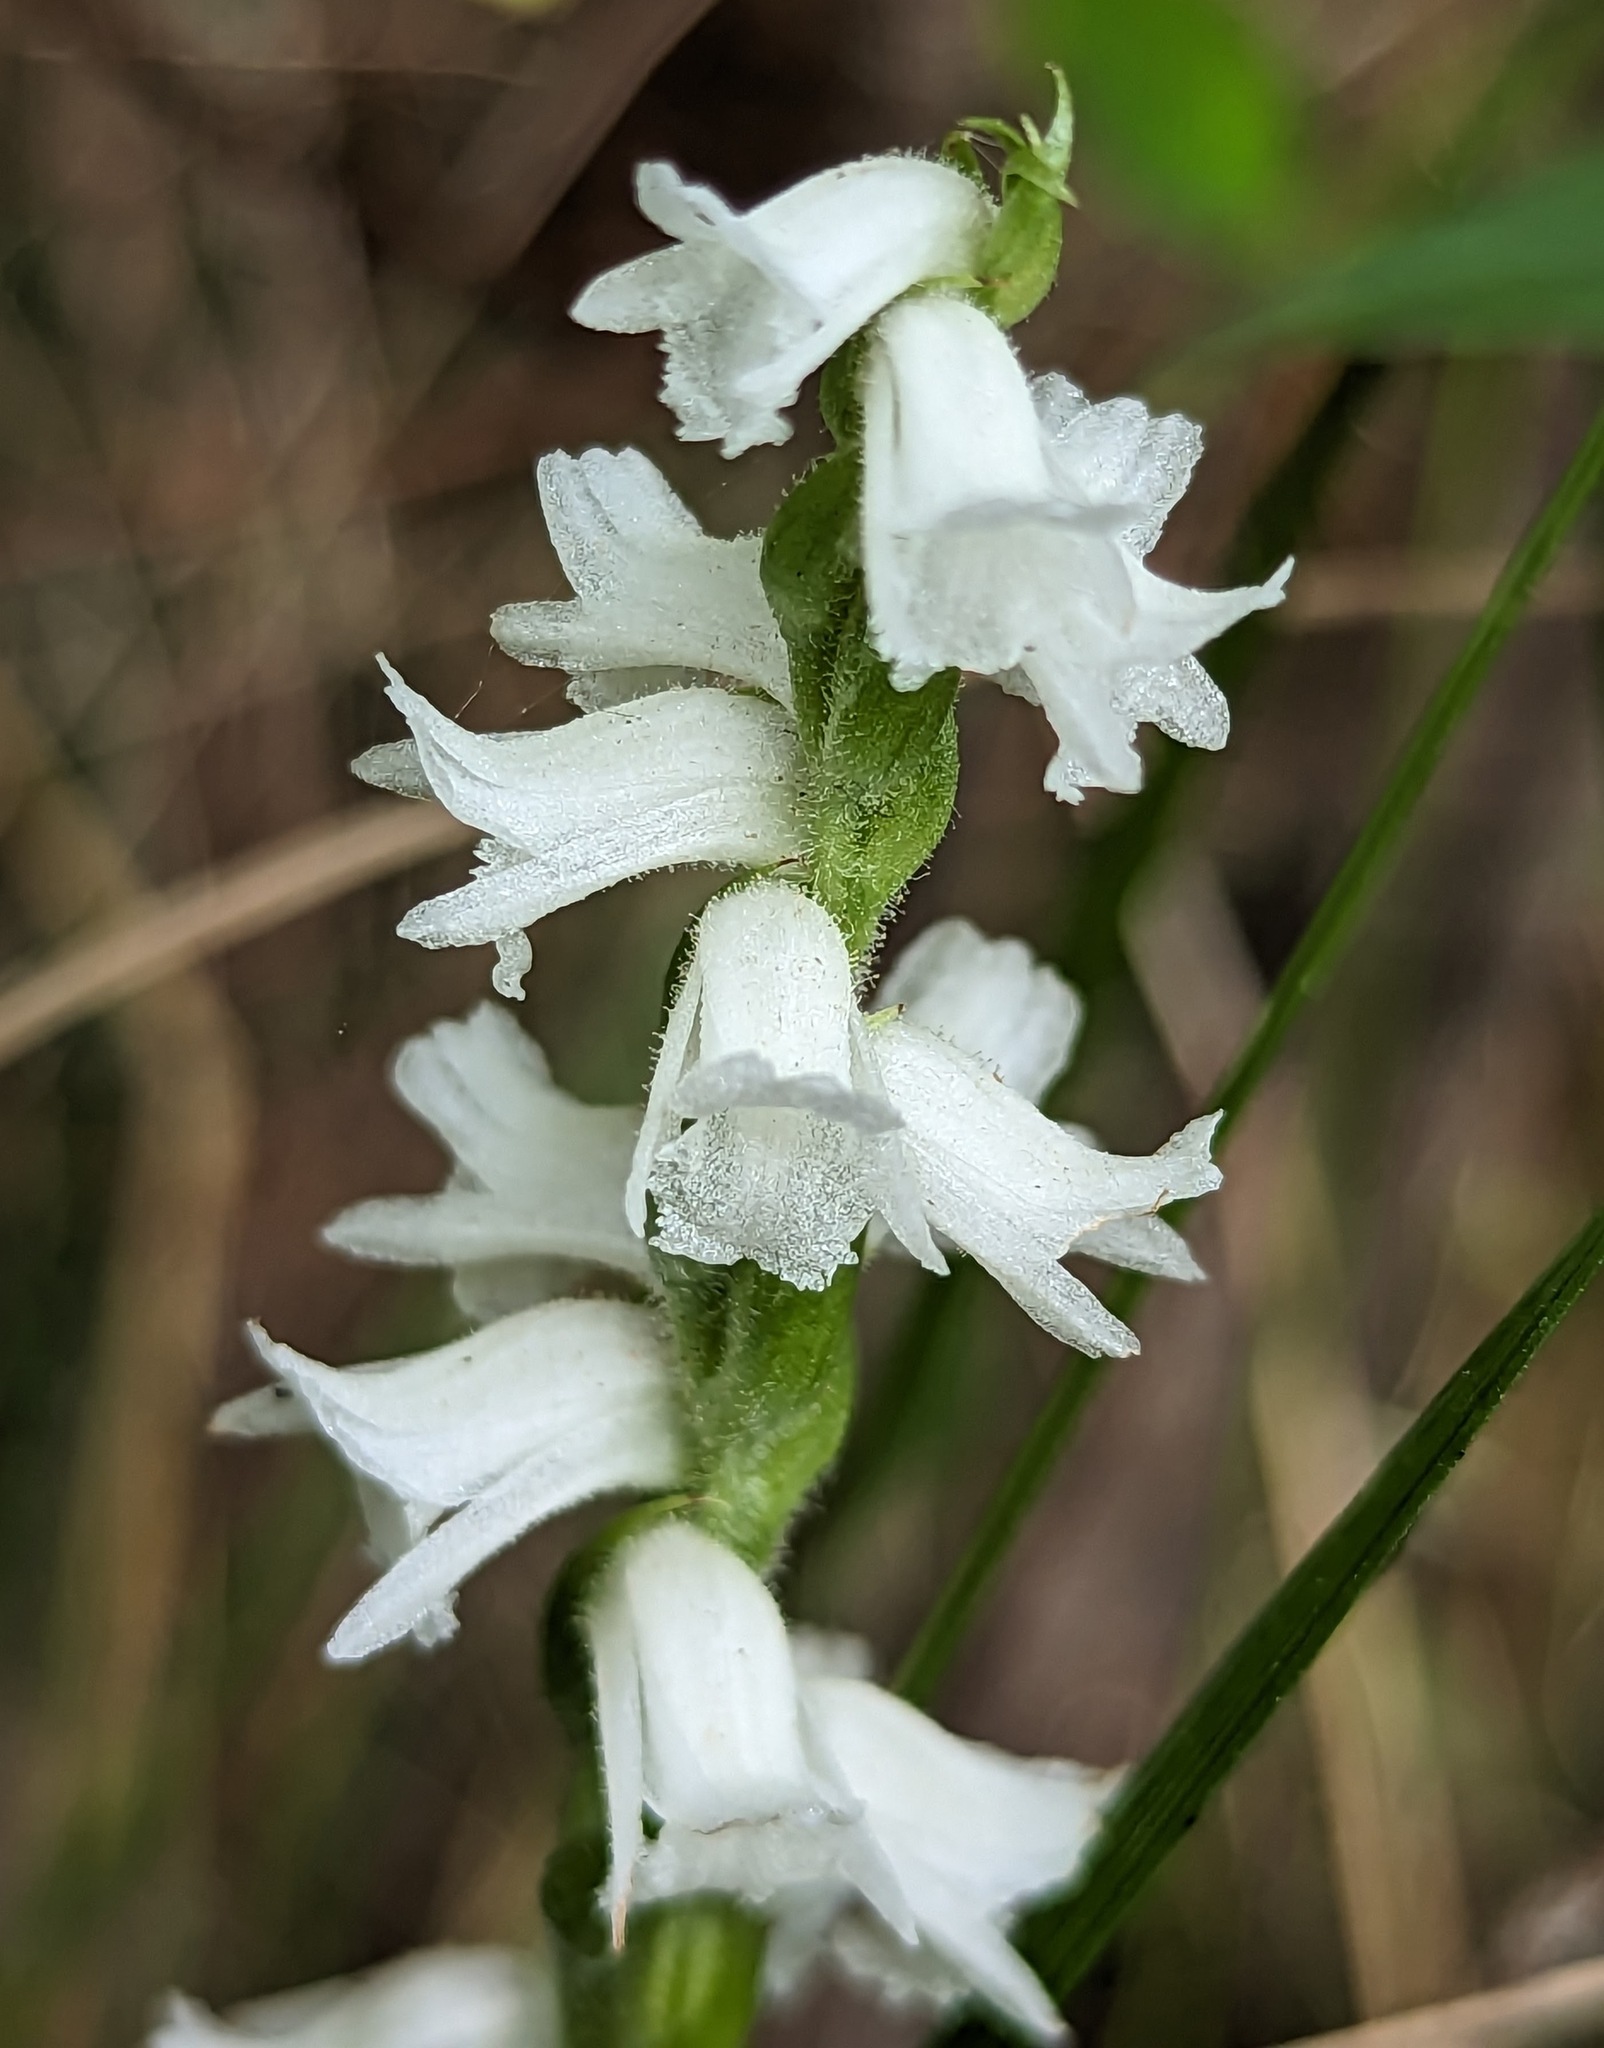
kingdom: Plantae
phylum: Tracheophyta
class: Liliopsida
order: Asparagales
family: Orchidaceae
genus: Spiranthes
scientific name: Spiranthes arcisepala
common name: Appalachian ladies'-tresses
